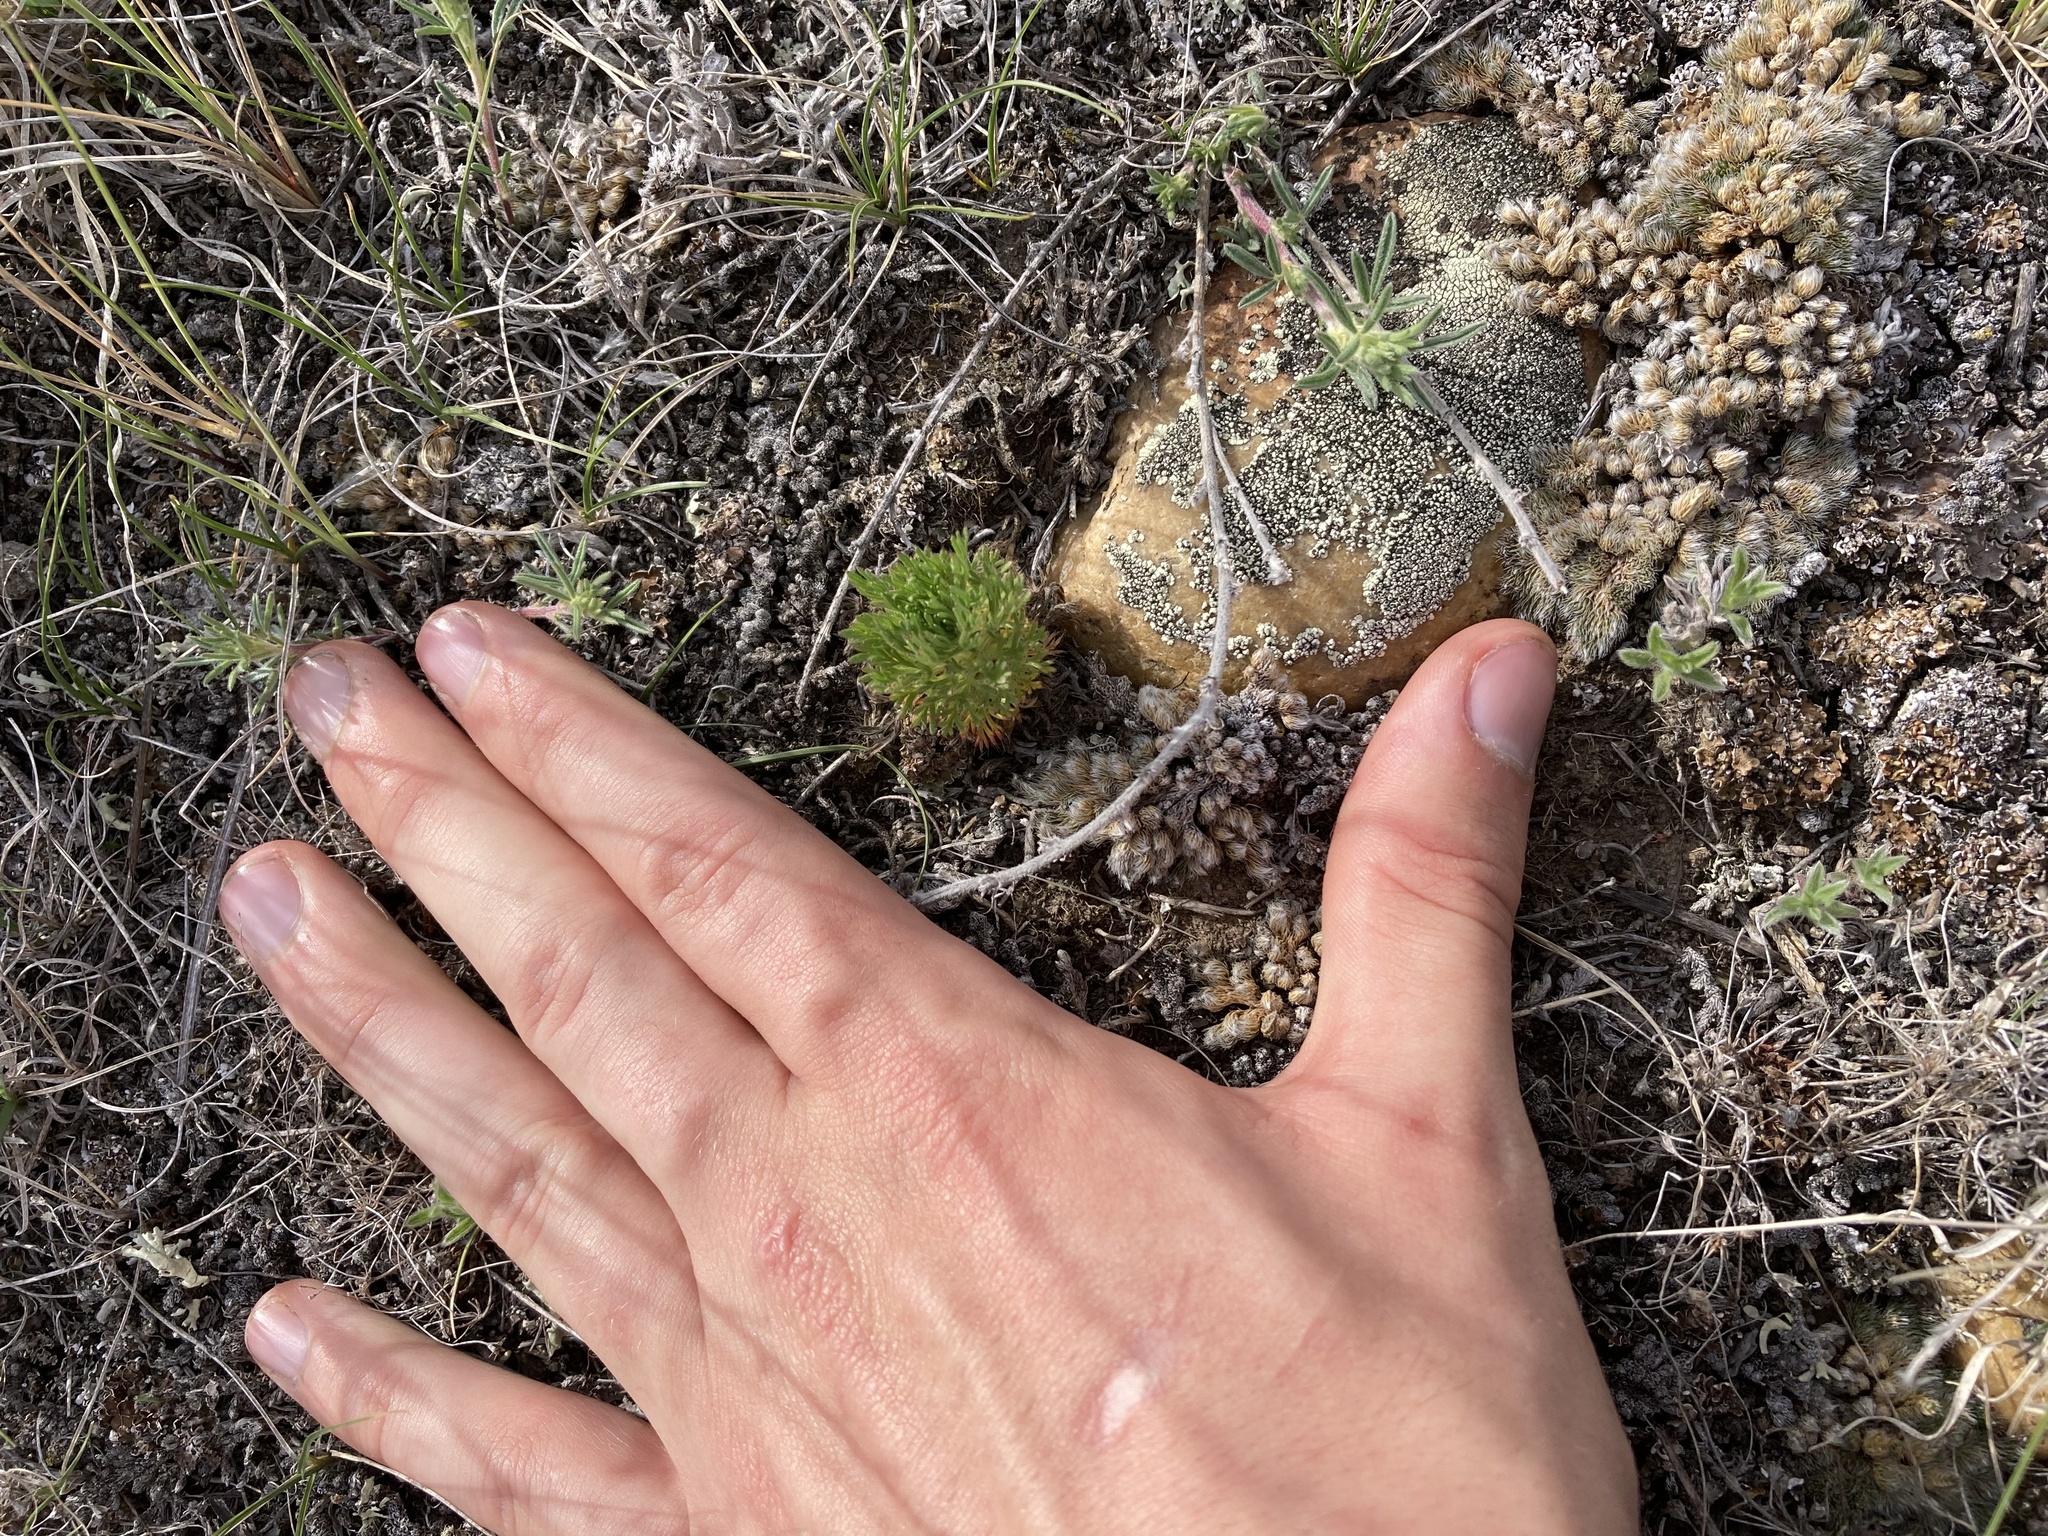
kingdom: Plantae
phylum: Tracheophyta
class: Magnoliopsida
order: Rosales
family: Rosaceae
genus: Chamaerhodos
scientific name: Chamaerhodos erecta
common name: American chamaerhodos
